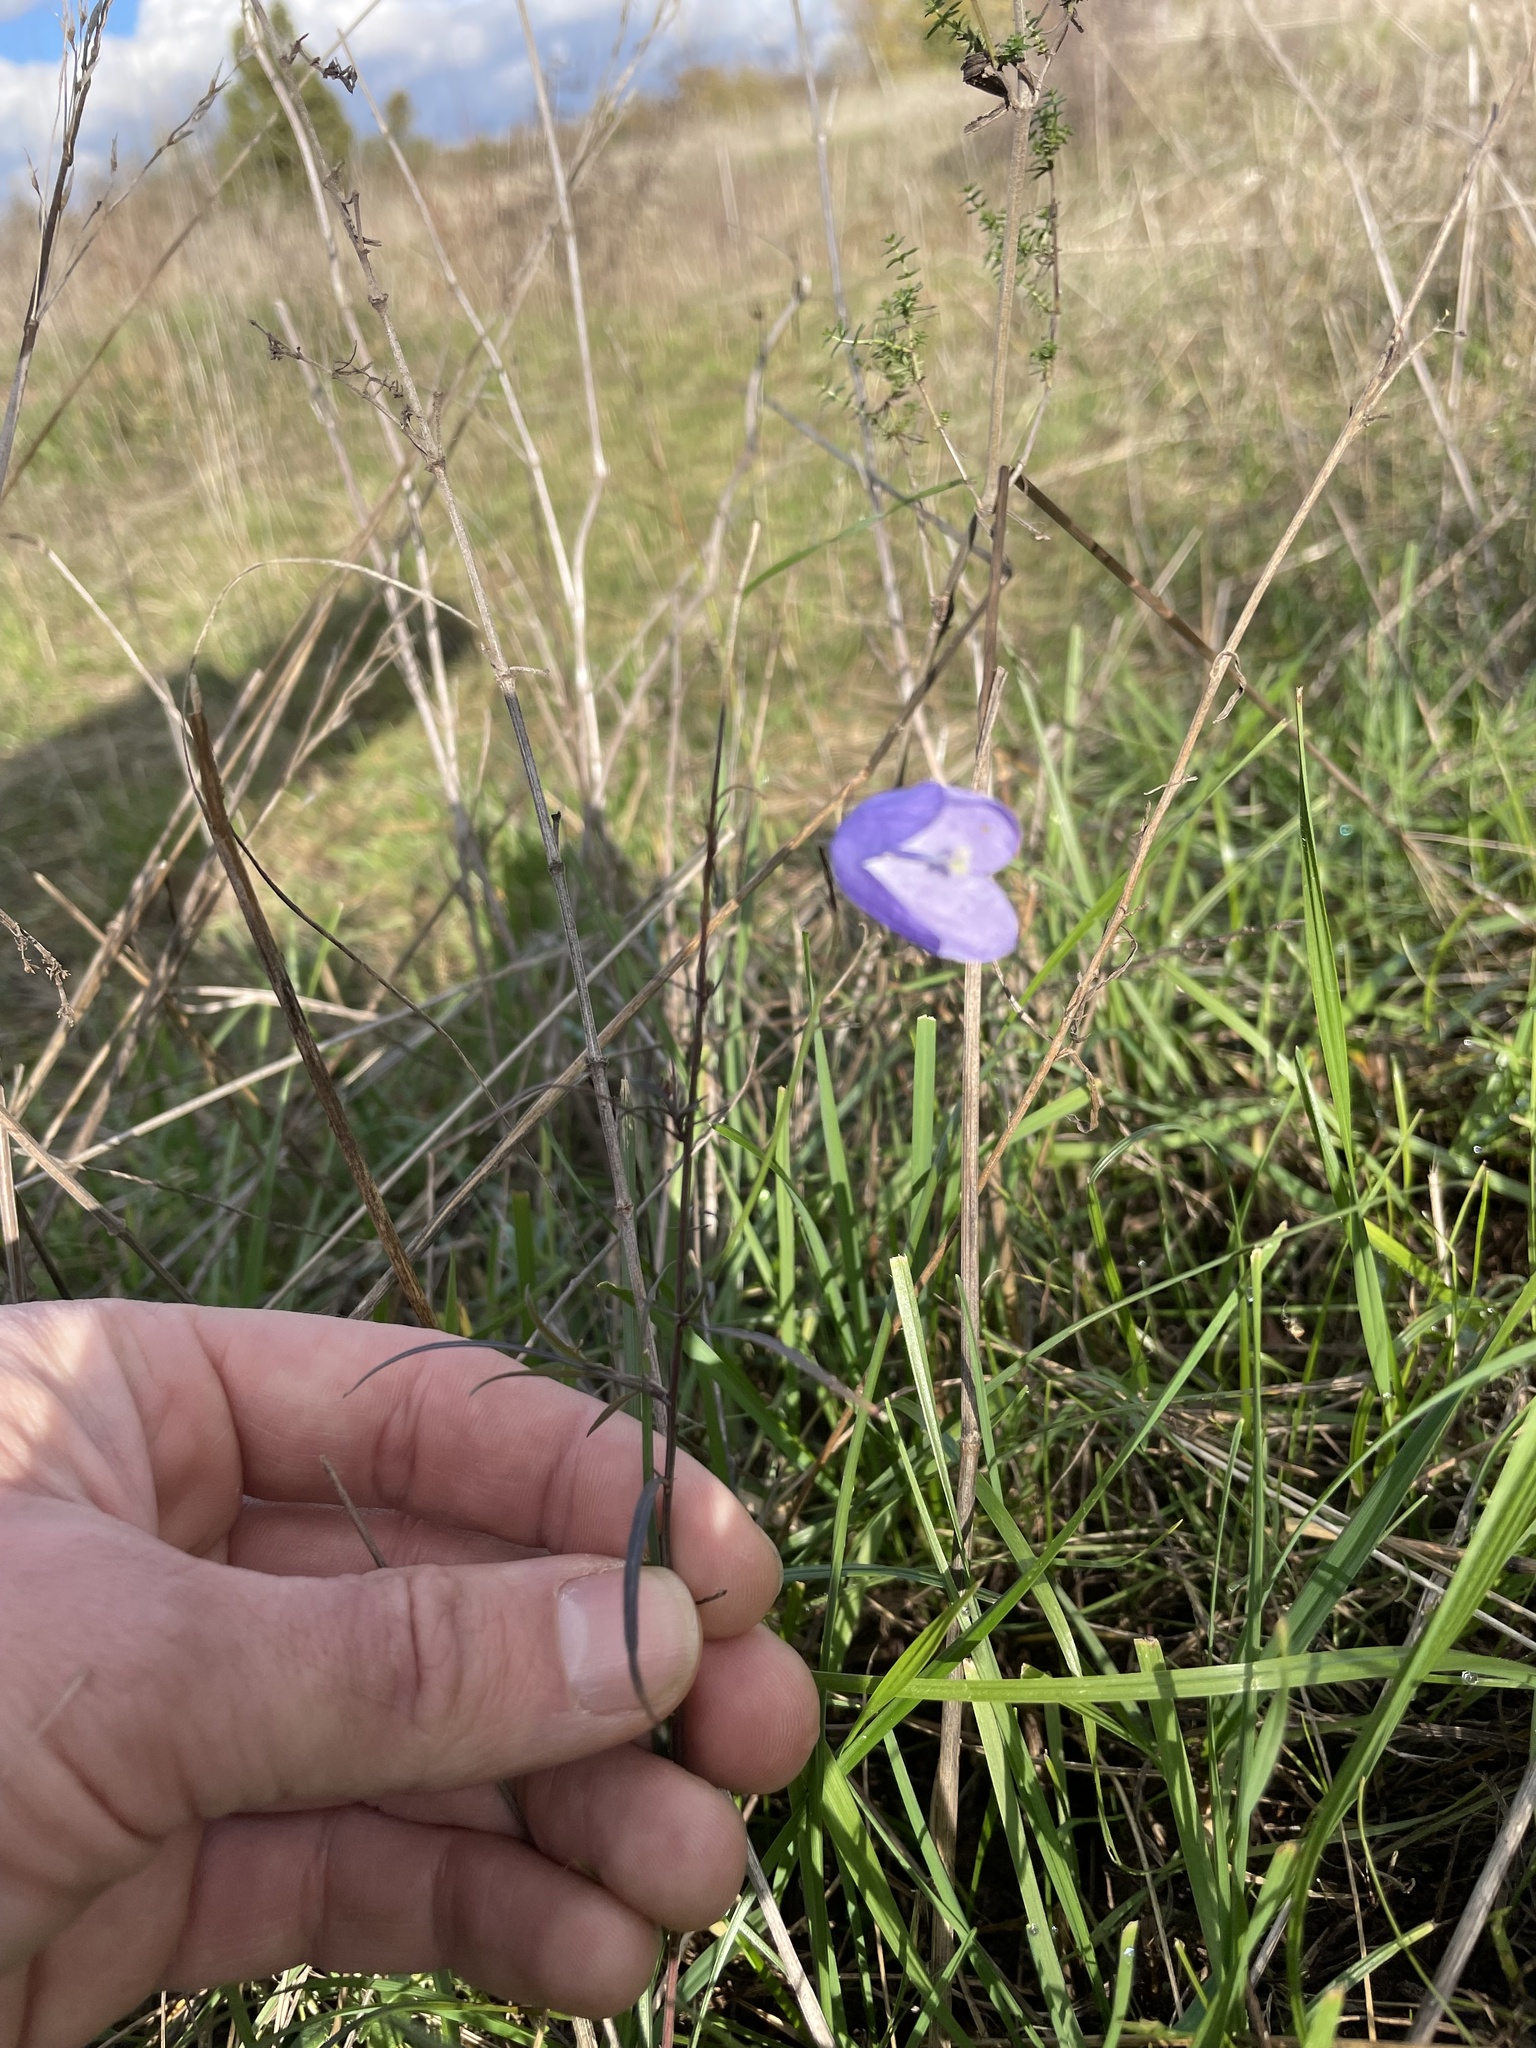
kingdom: Plantae
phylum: Tracheophyta
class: Magnoliopsida
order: Asterales
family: Campanulaceae
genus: Campanula
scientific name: Campanula rotundifolia
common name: Harebell
